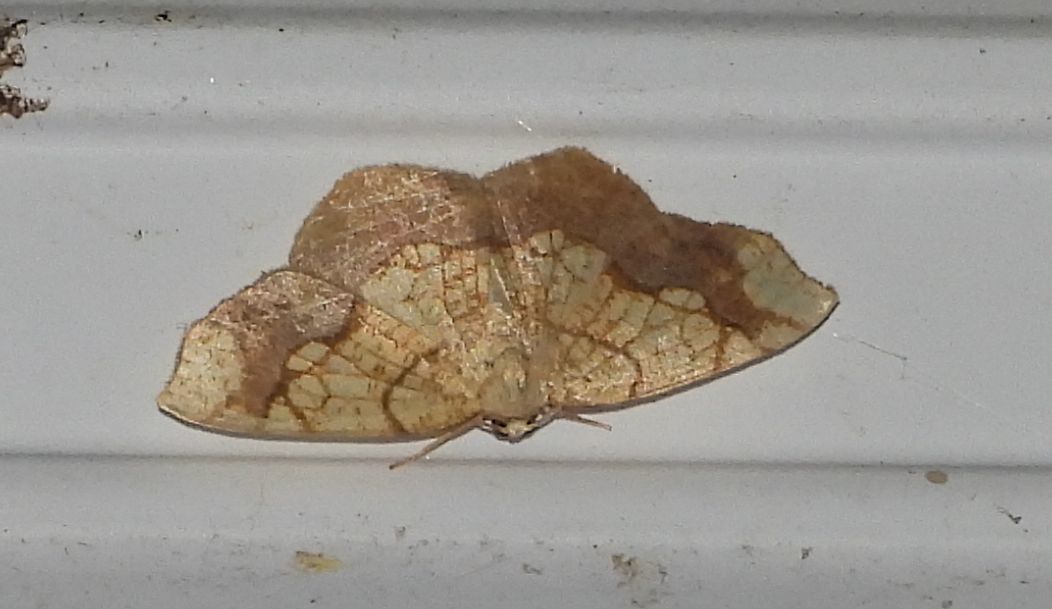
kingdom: Animalia
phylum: Arthropoda
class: Insecta
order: Lepidoptera
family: Geometridae
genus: Nematocampa
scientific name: Nematocampa resistaria
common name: Horned spanworm moth
